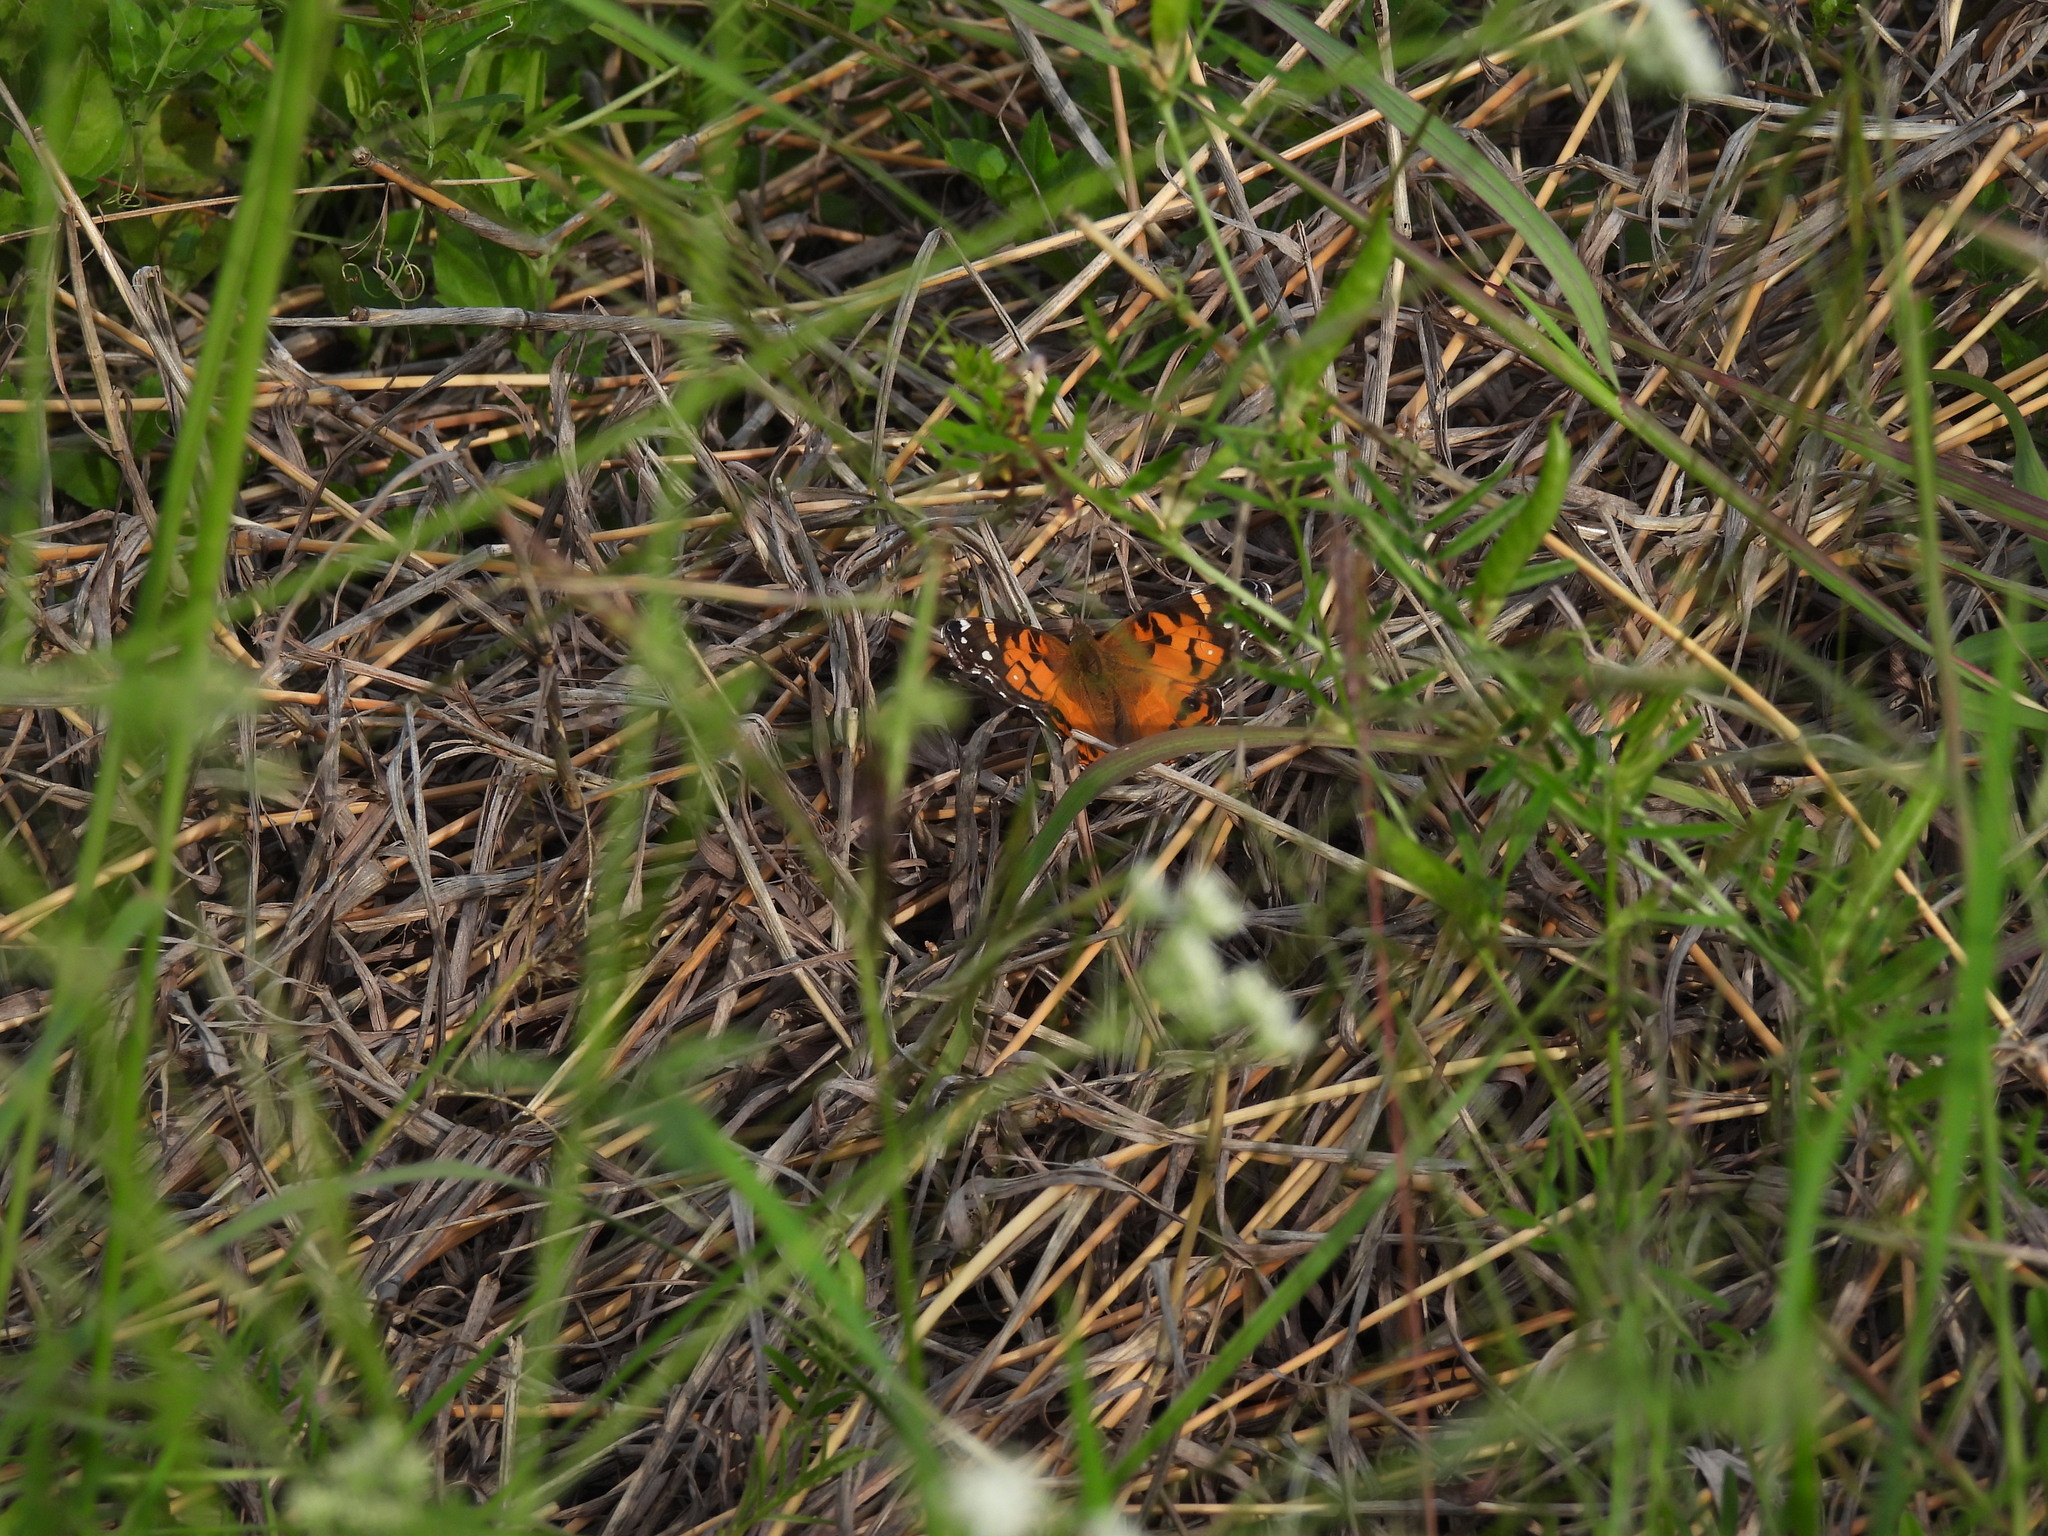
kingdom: Animalia
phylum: Arthropoda
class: Insecta
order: Lepidoptera
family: Nymphalidae
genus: Vanessa
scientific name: Vanessa virginiensis
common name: American lady
